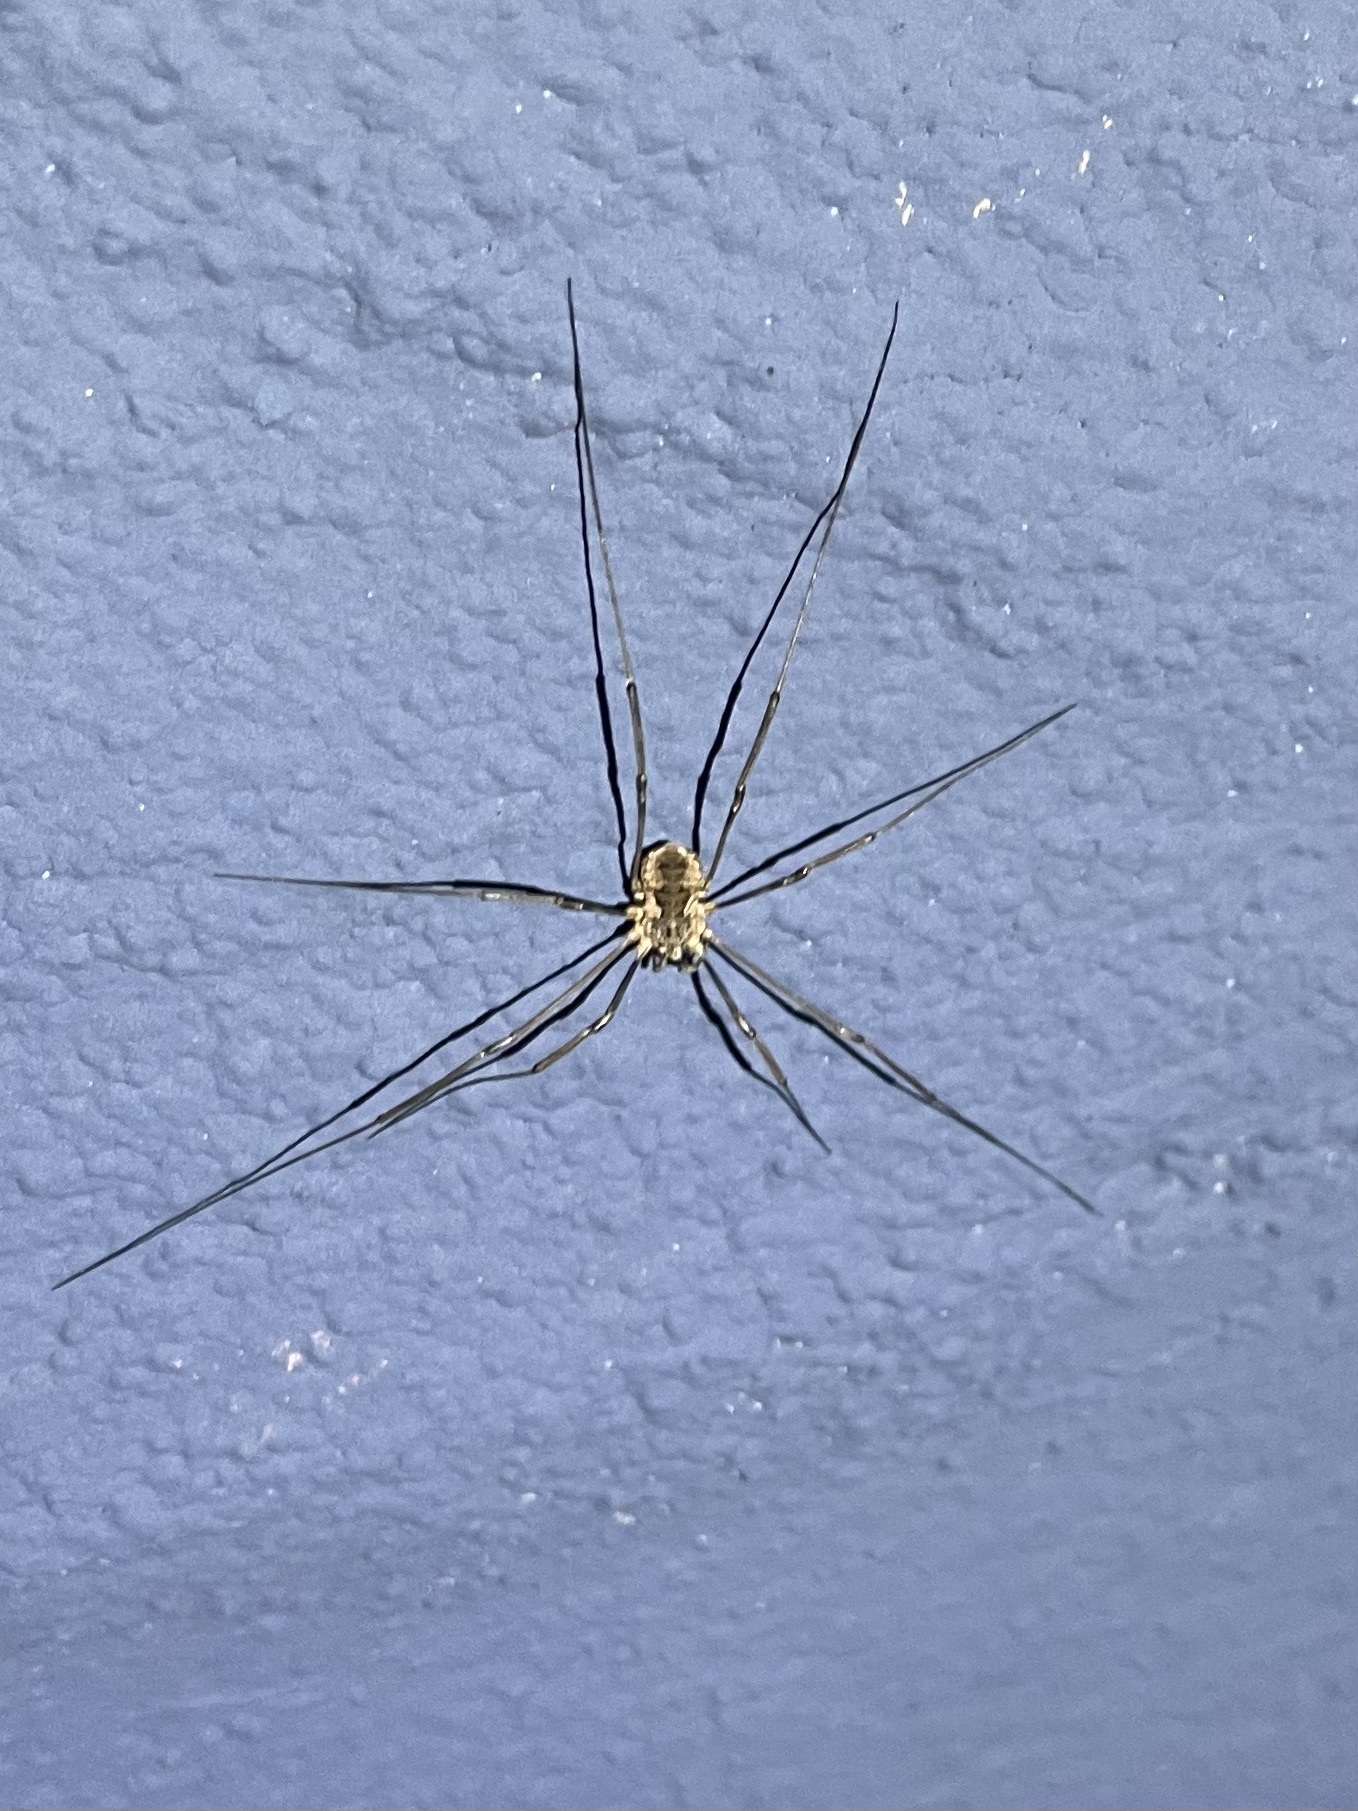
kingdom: Animalia
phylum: Arthropoda
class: Arachnida
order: Opiliones
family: Phalangiidae
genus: Phalangium
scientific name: Phalangium opilio
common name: Daddy longleg
